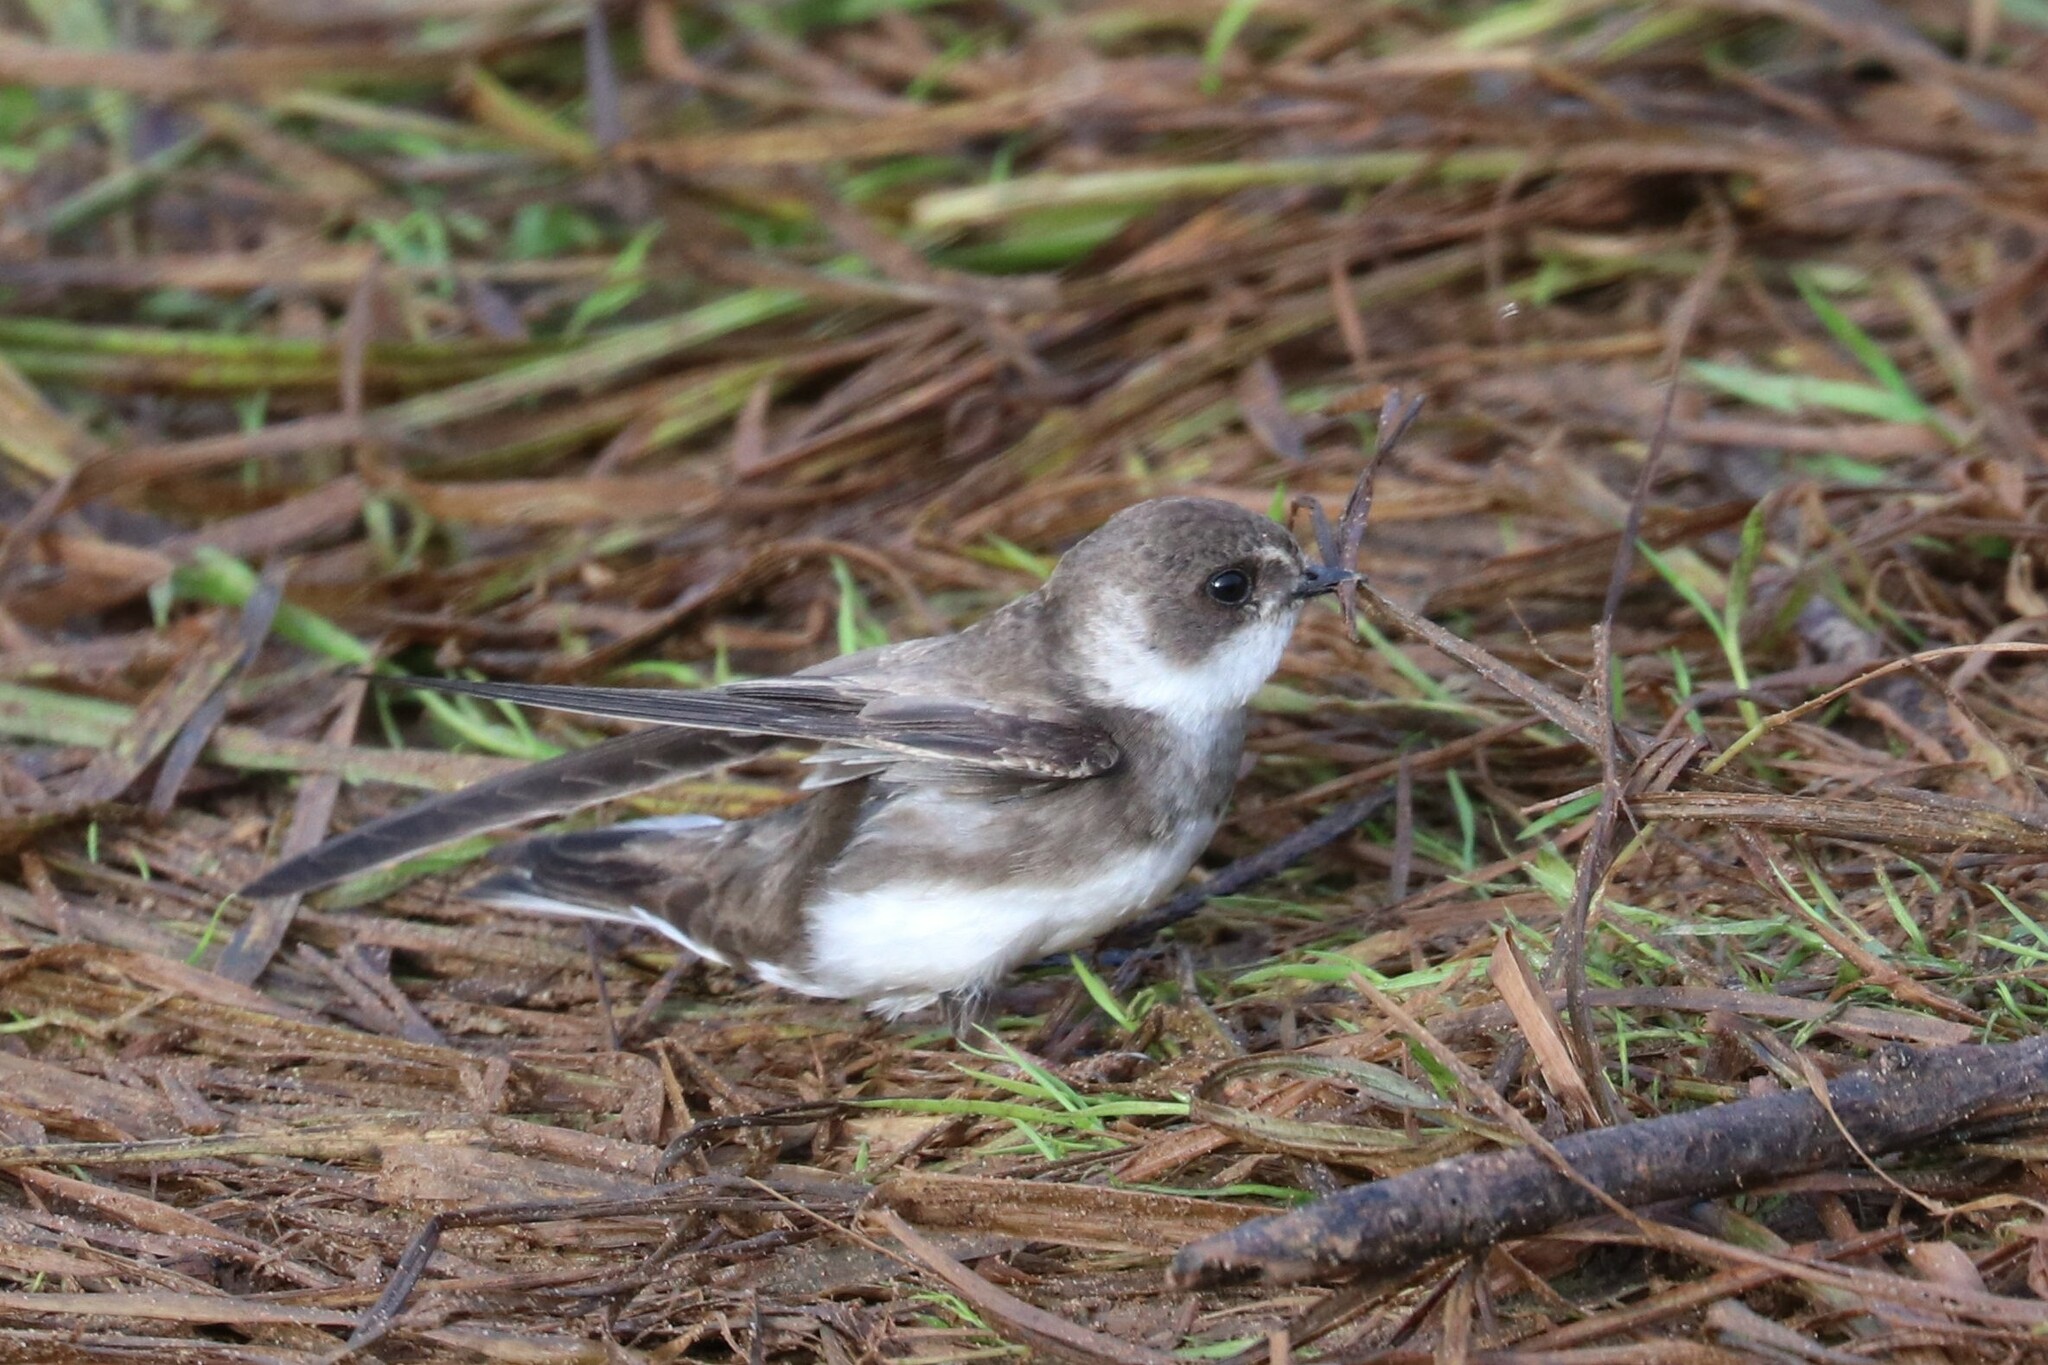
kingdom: Animalia
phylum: Chordata
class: Aves
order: Passeriformes
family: Hirundinidae
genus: Riparia
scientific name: Riparia riparia
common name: Sand martin
